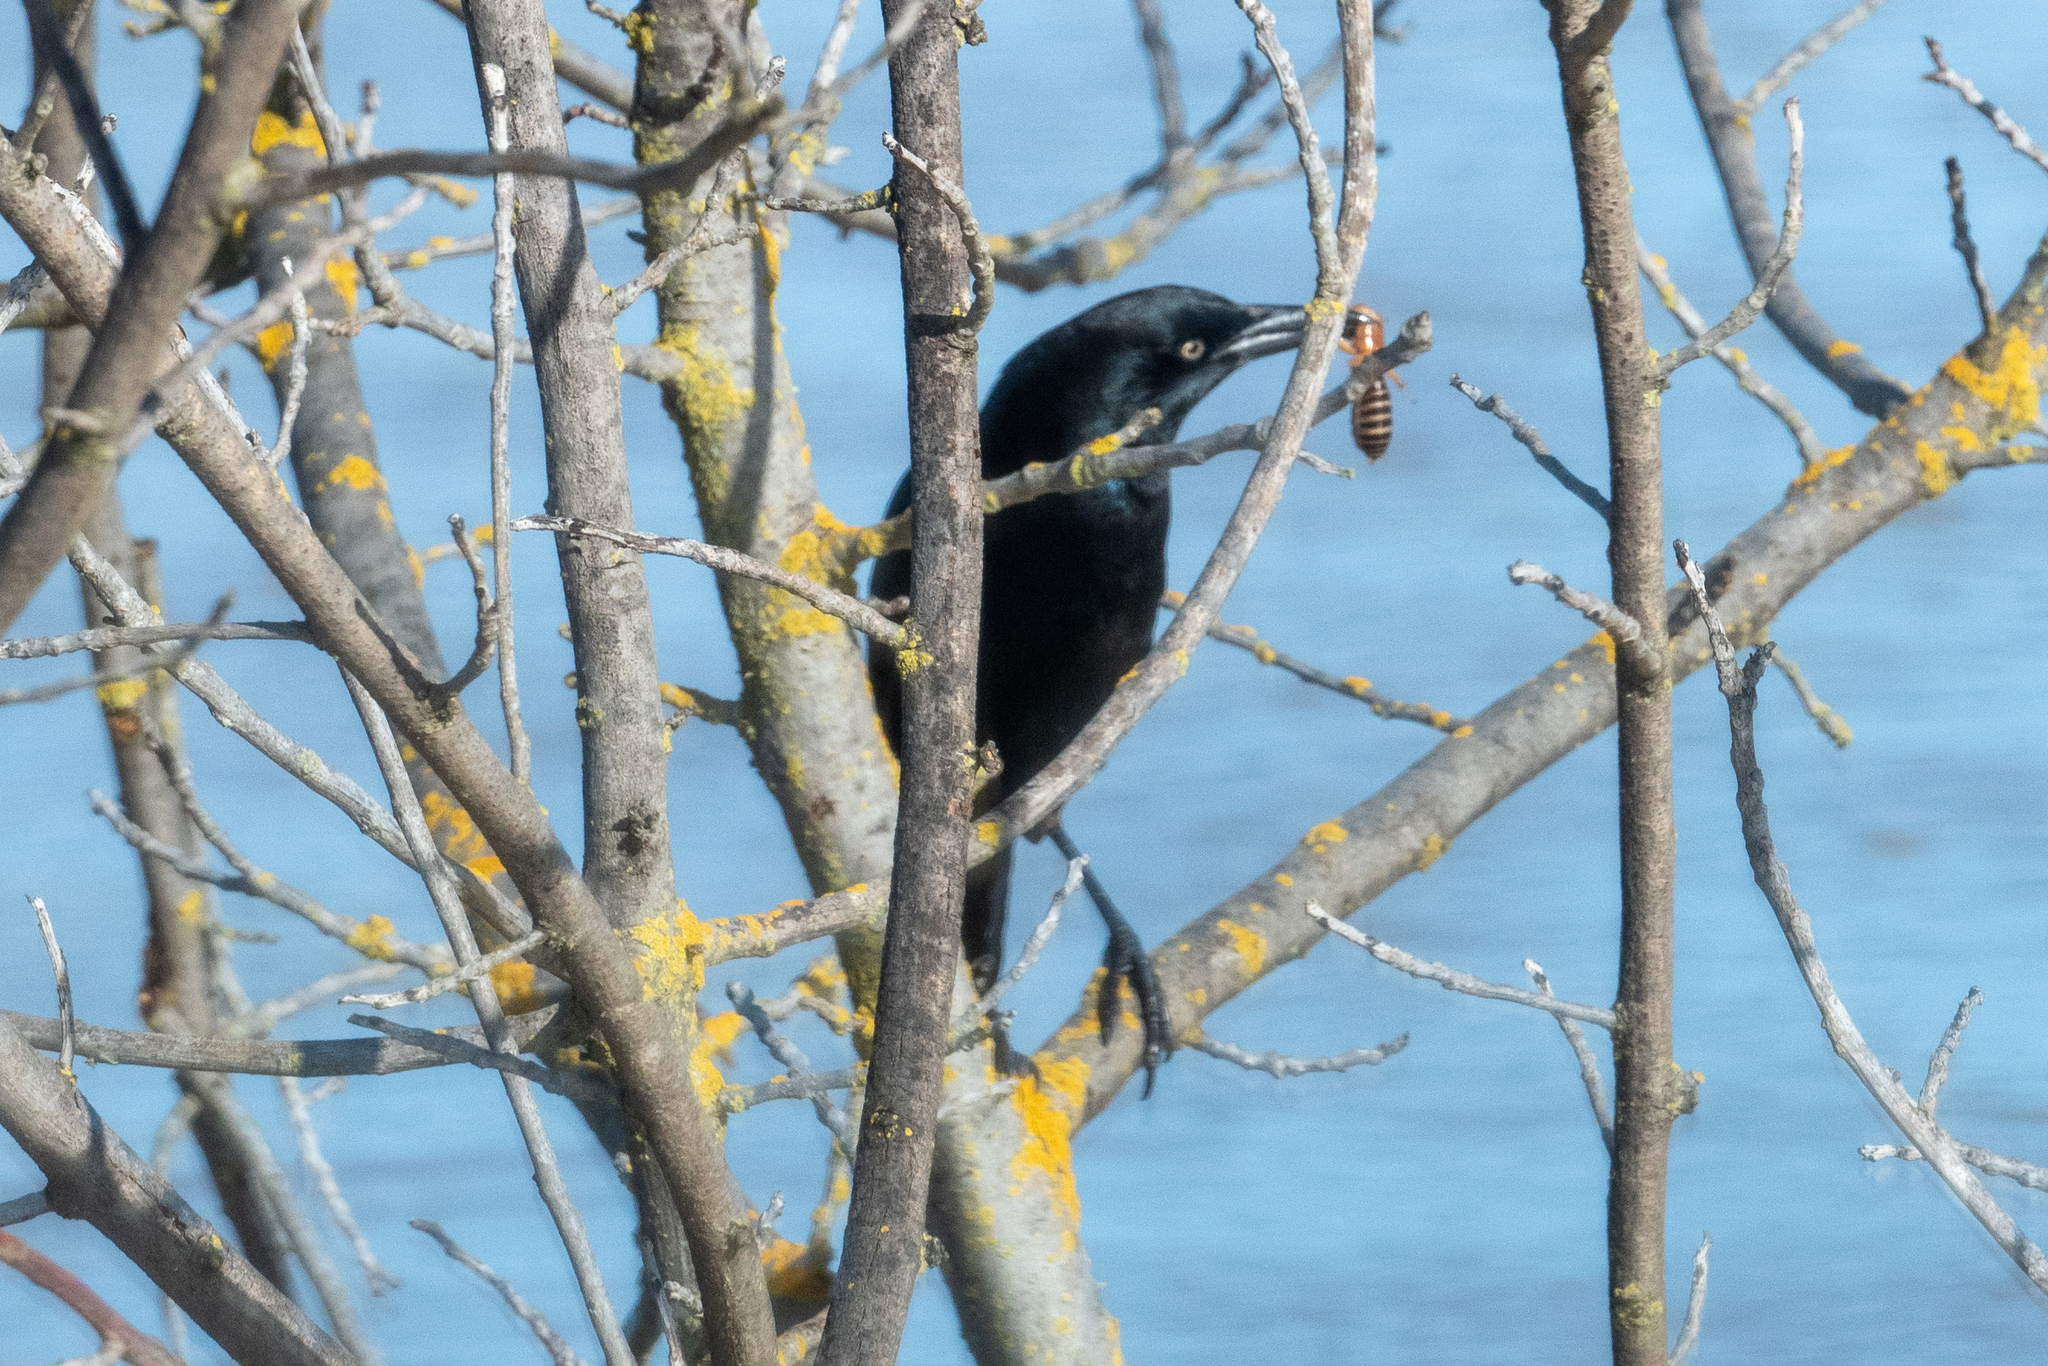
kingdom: Animalia
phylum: Chordata
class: Aves
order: Passeriformes
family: Icteridae
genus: Quiscalus
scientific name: Quiscalus mexicanus
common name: Great-tailed grackle
